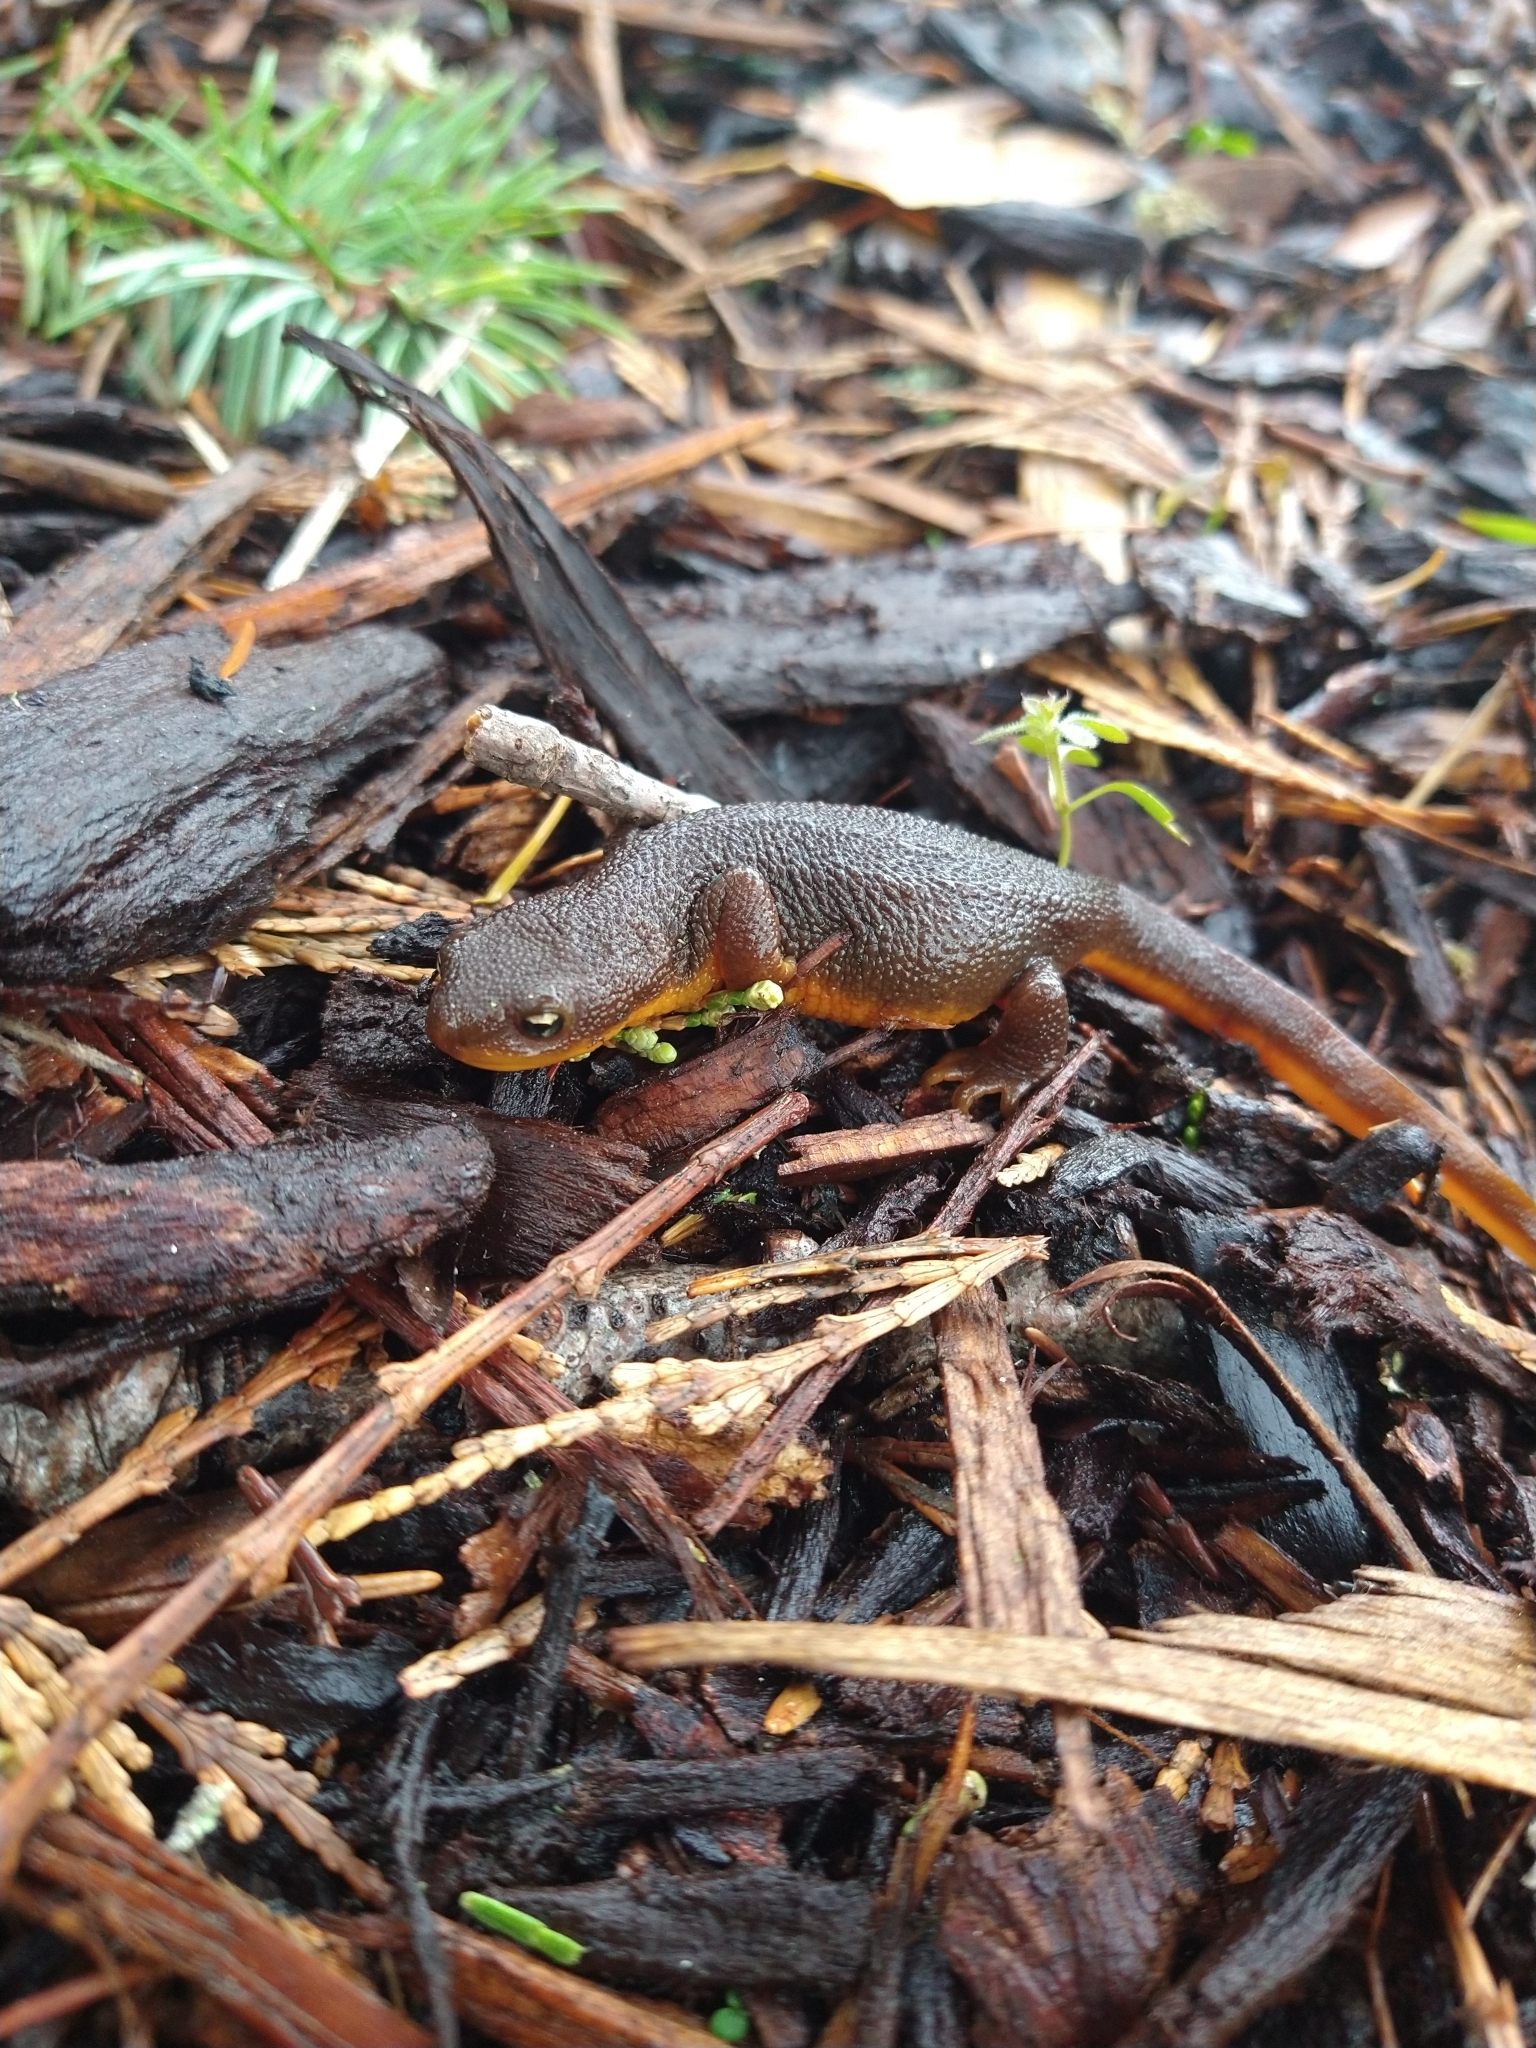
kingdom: Animalia
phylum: Chordata
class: Amphibia
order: Caudata
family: Salamandridae
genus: Taricha
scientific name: Taricha granulosa
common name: Roughskin newt
